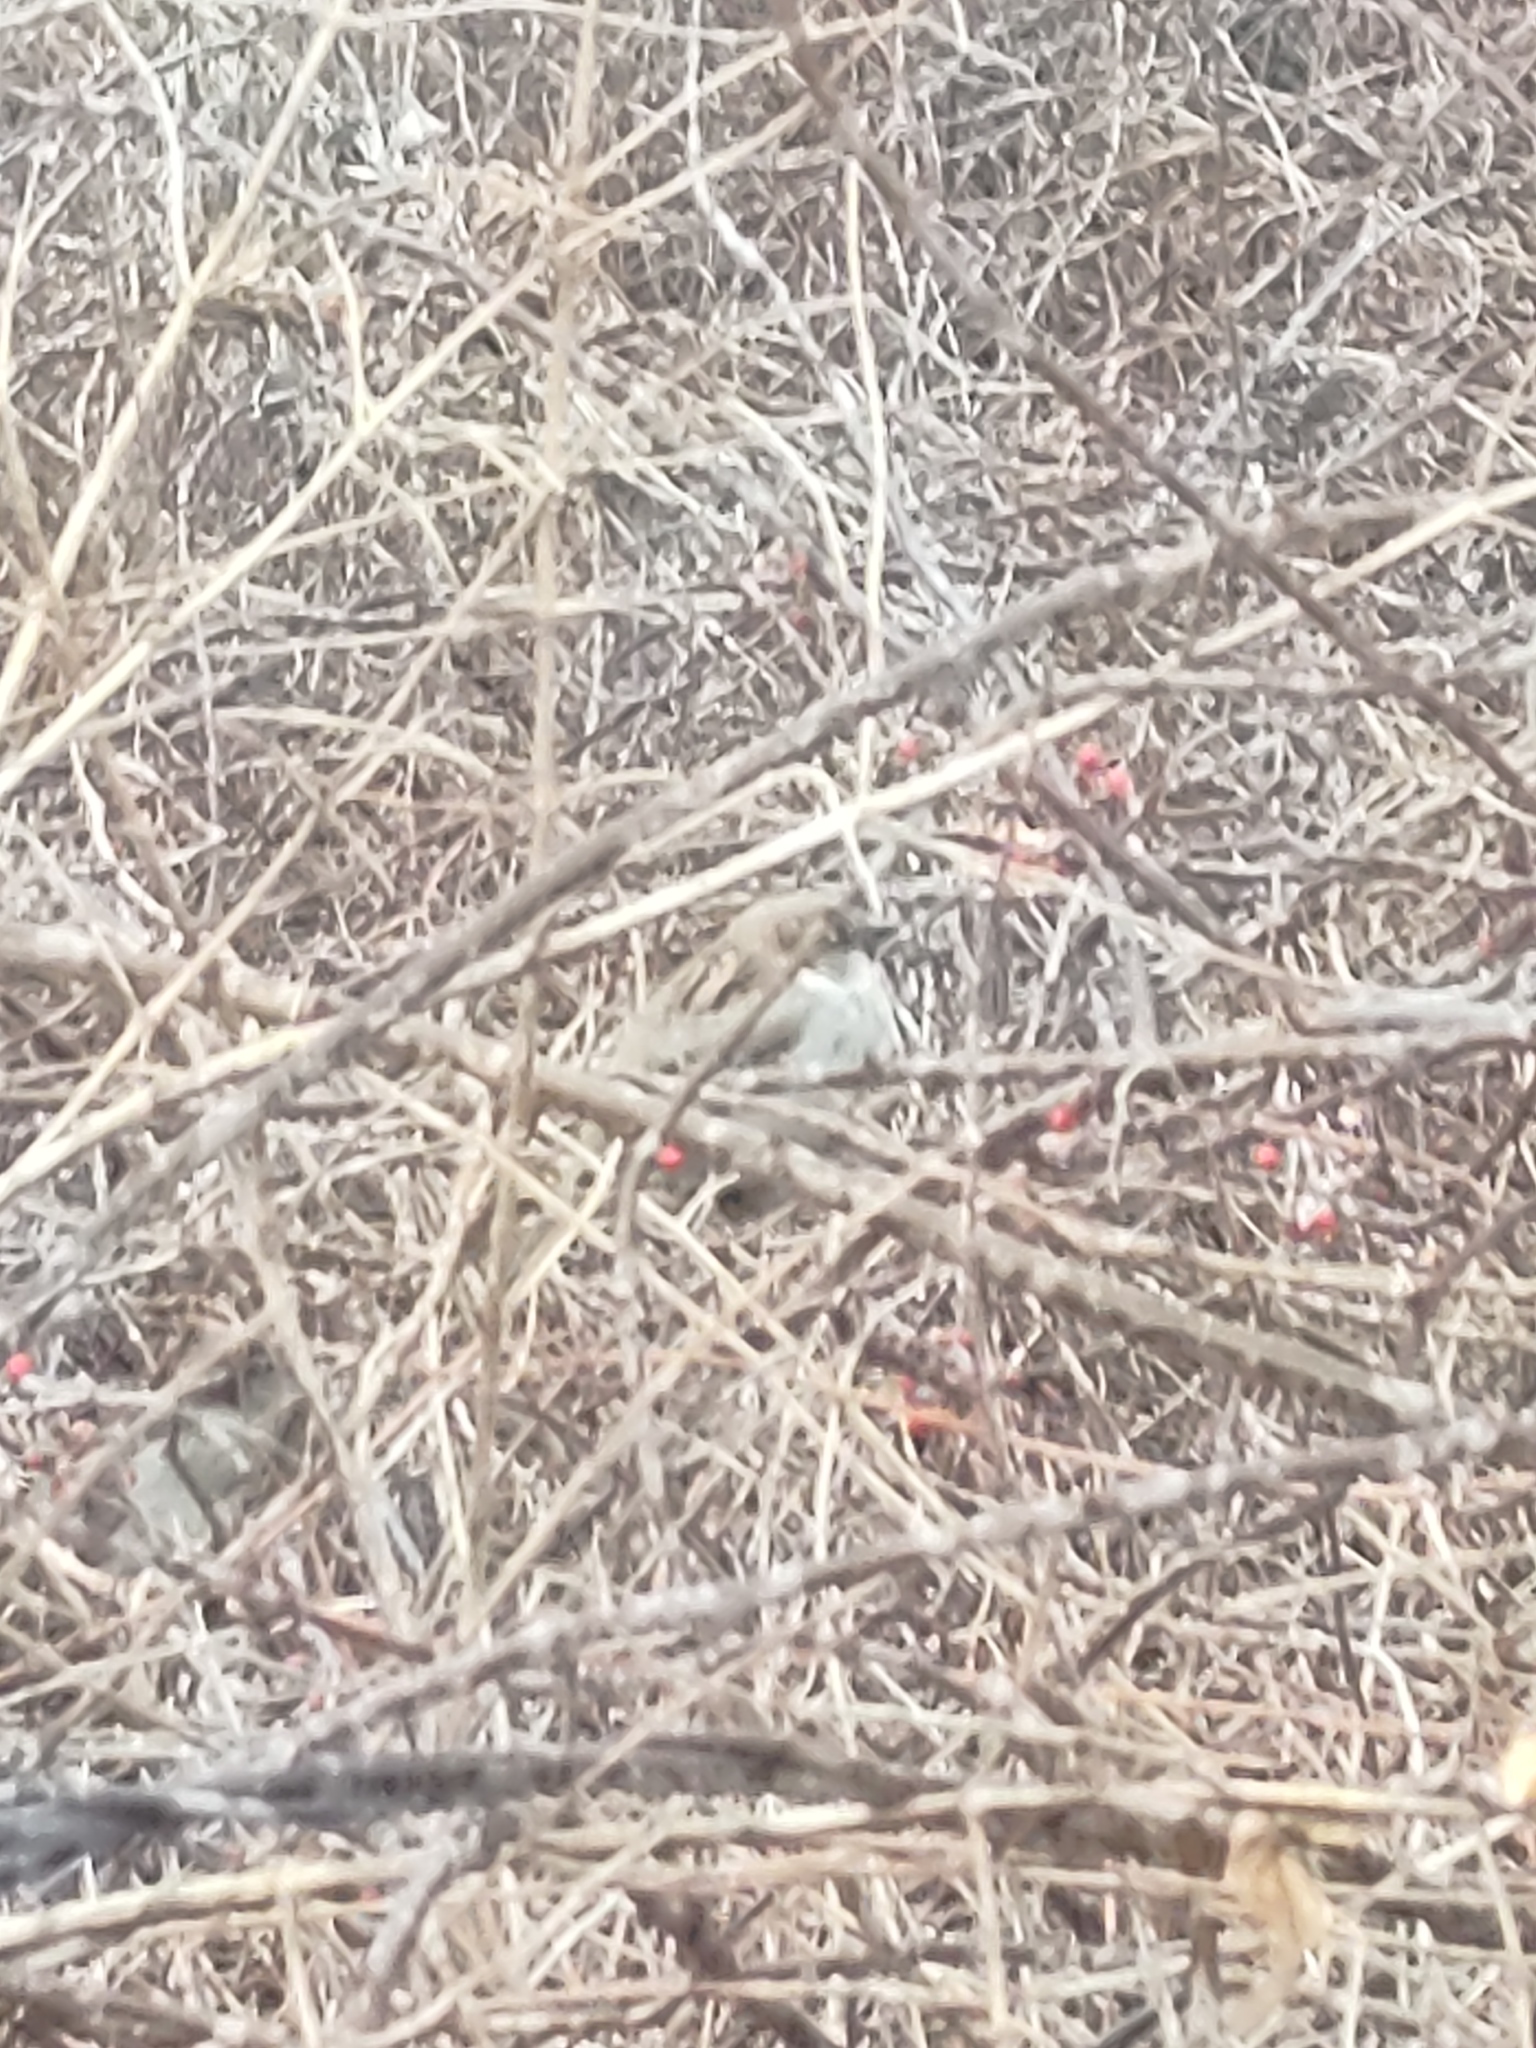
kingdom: Animalia
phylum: Chordata
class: Aves
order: Passeriformes
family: Passeridae
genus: Passer
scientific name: Passer domesticus
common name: House sparrow
